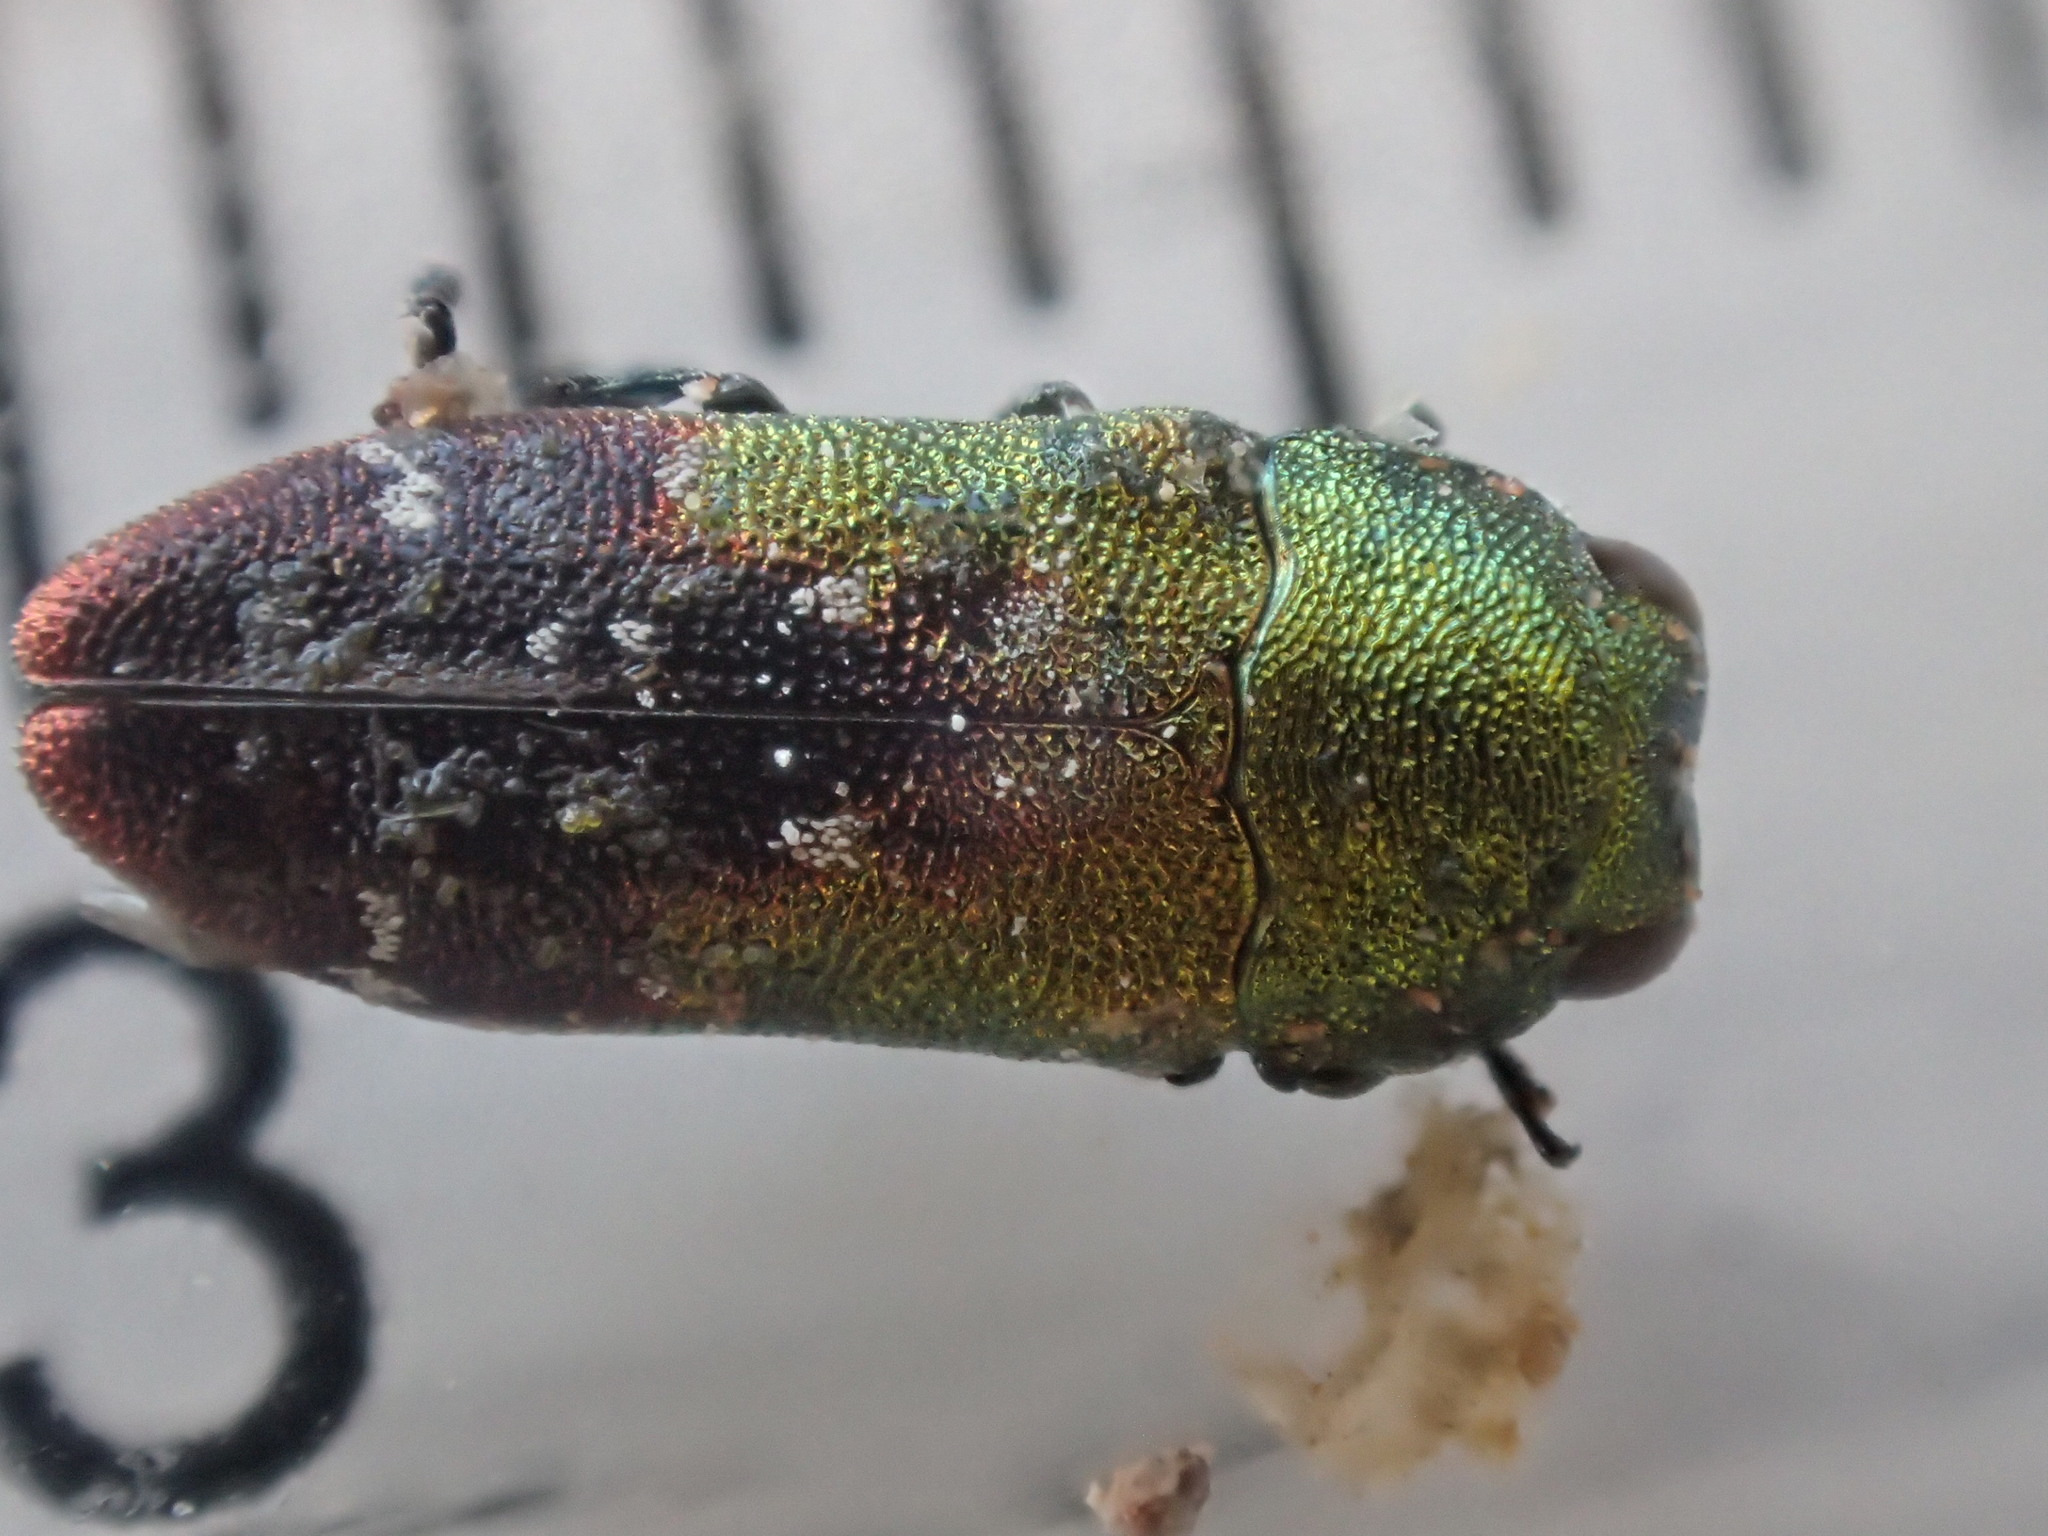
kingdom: Animalia
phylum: Arthropoda
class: Insecta
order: Coleoptera
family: Buprestidae
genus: Neospades
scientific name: Neospades chrysopygius
